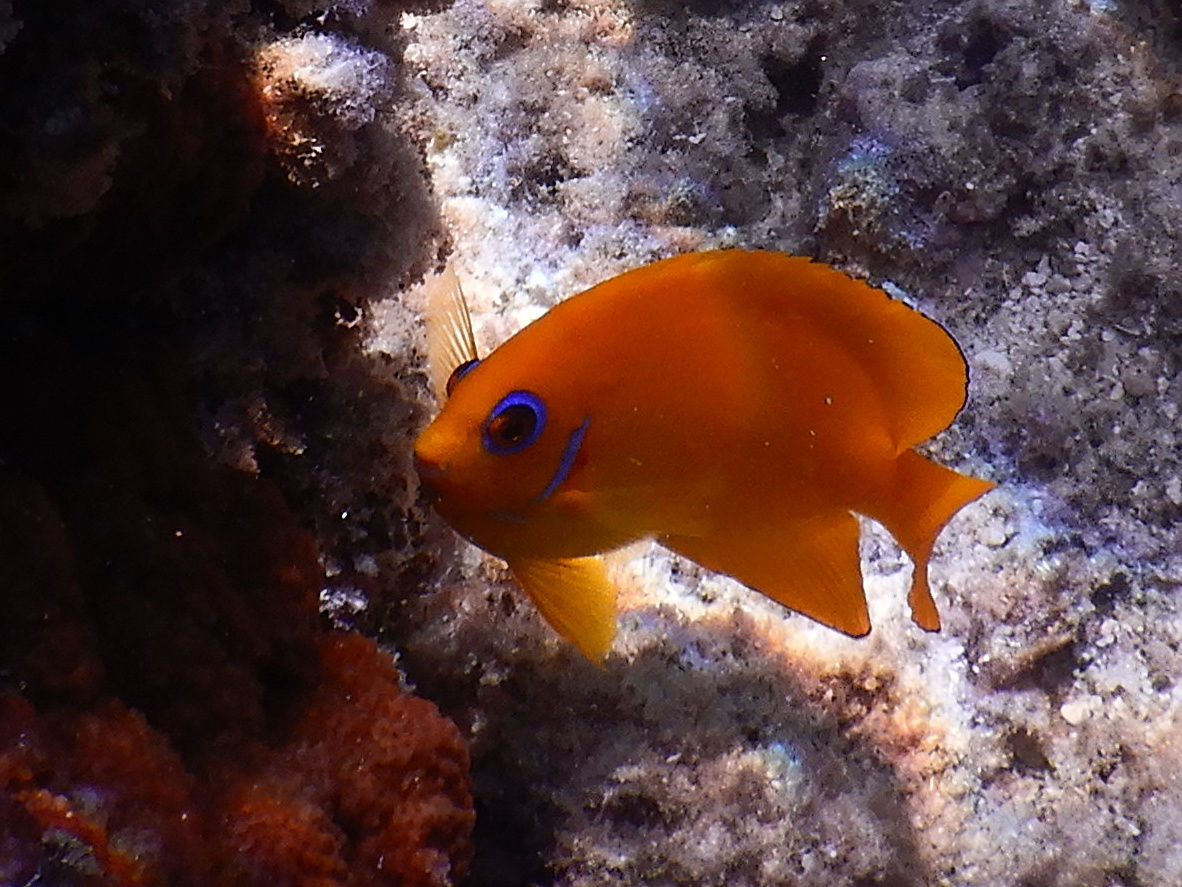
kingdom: Animalia
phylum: Chordata
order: Perciformes
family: Pomacanthidae
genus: Centropyge
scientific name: Centropyge flavissima
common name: Lemonpeel angelfish
